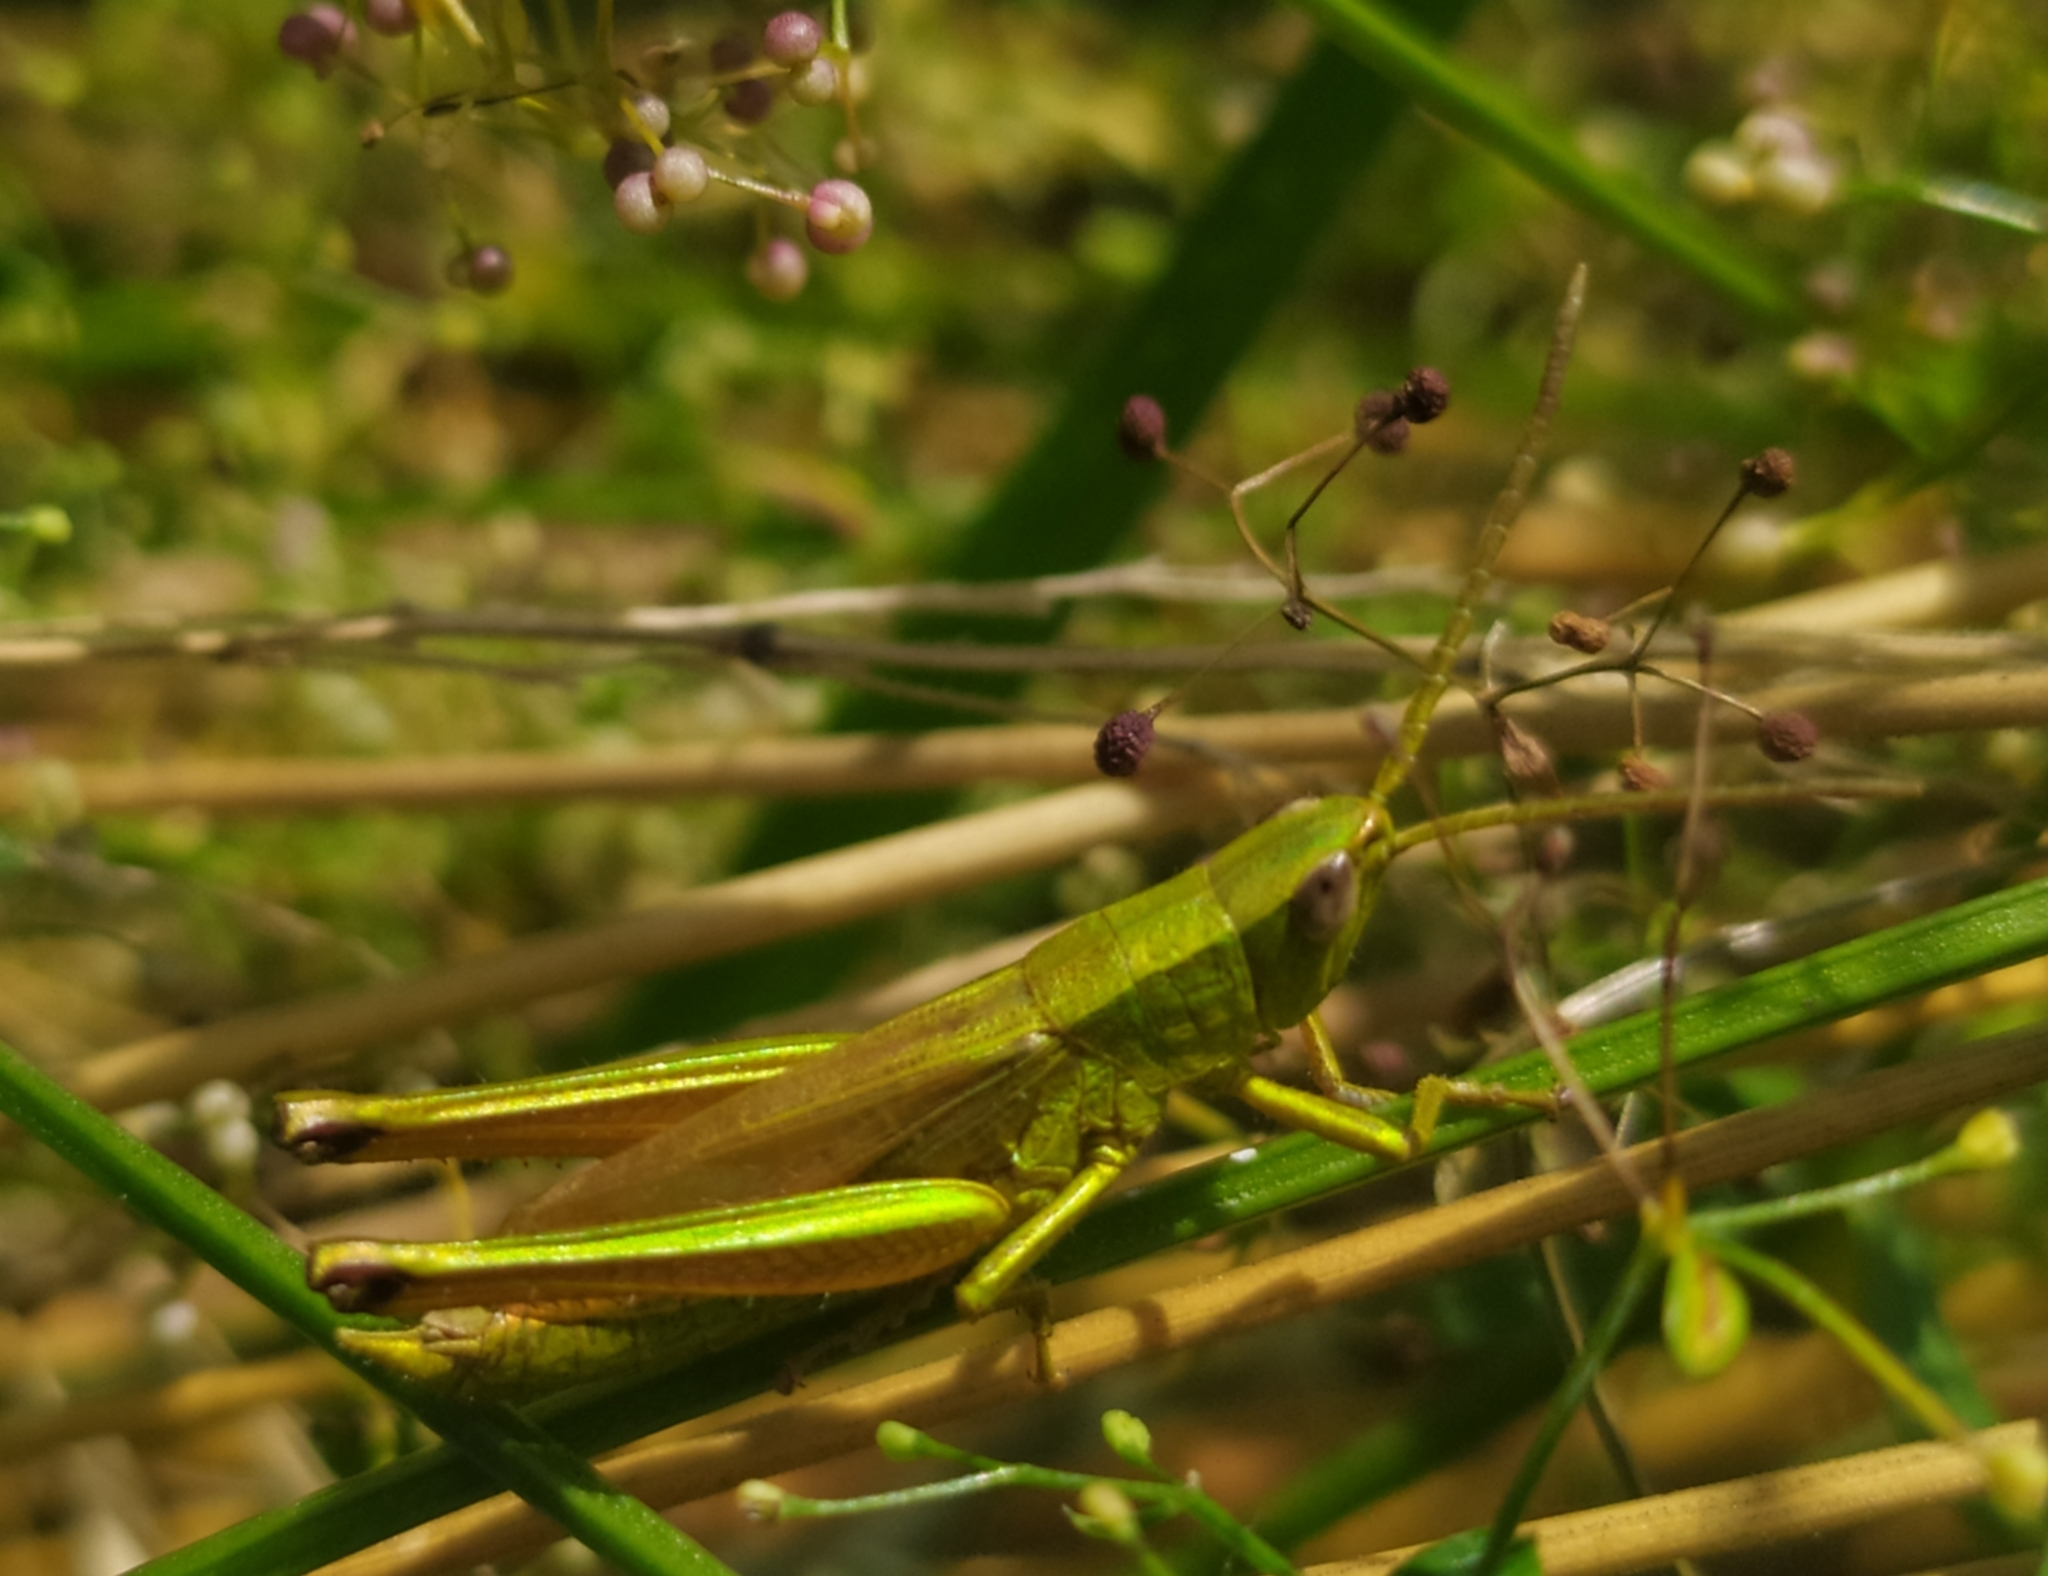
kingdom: Animalia
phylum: Arthropoda
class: Insecta
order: Orthoptera
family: Acrididae
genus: Chrysochraon
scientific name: Chrysochraon dispar
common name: Large gold grasshopper
